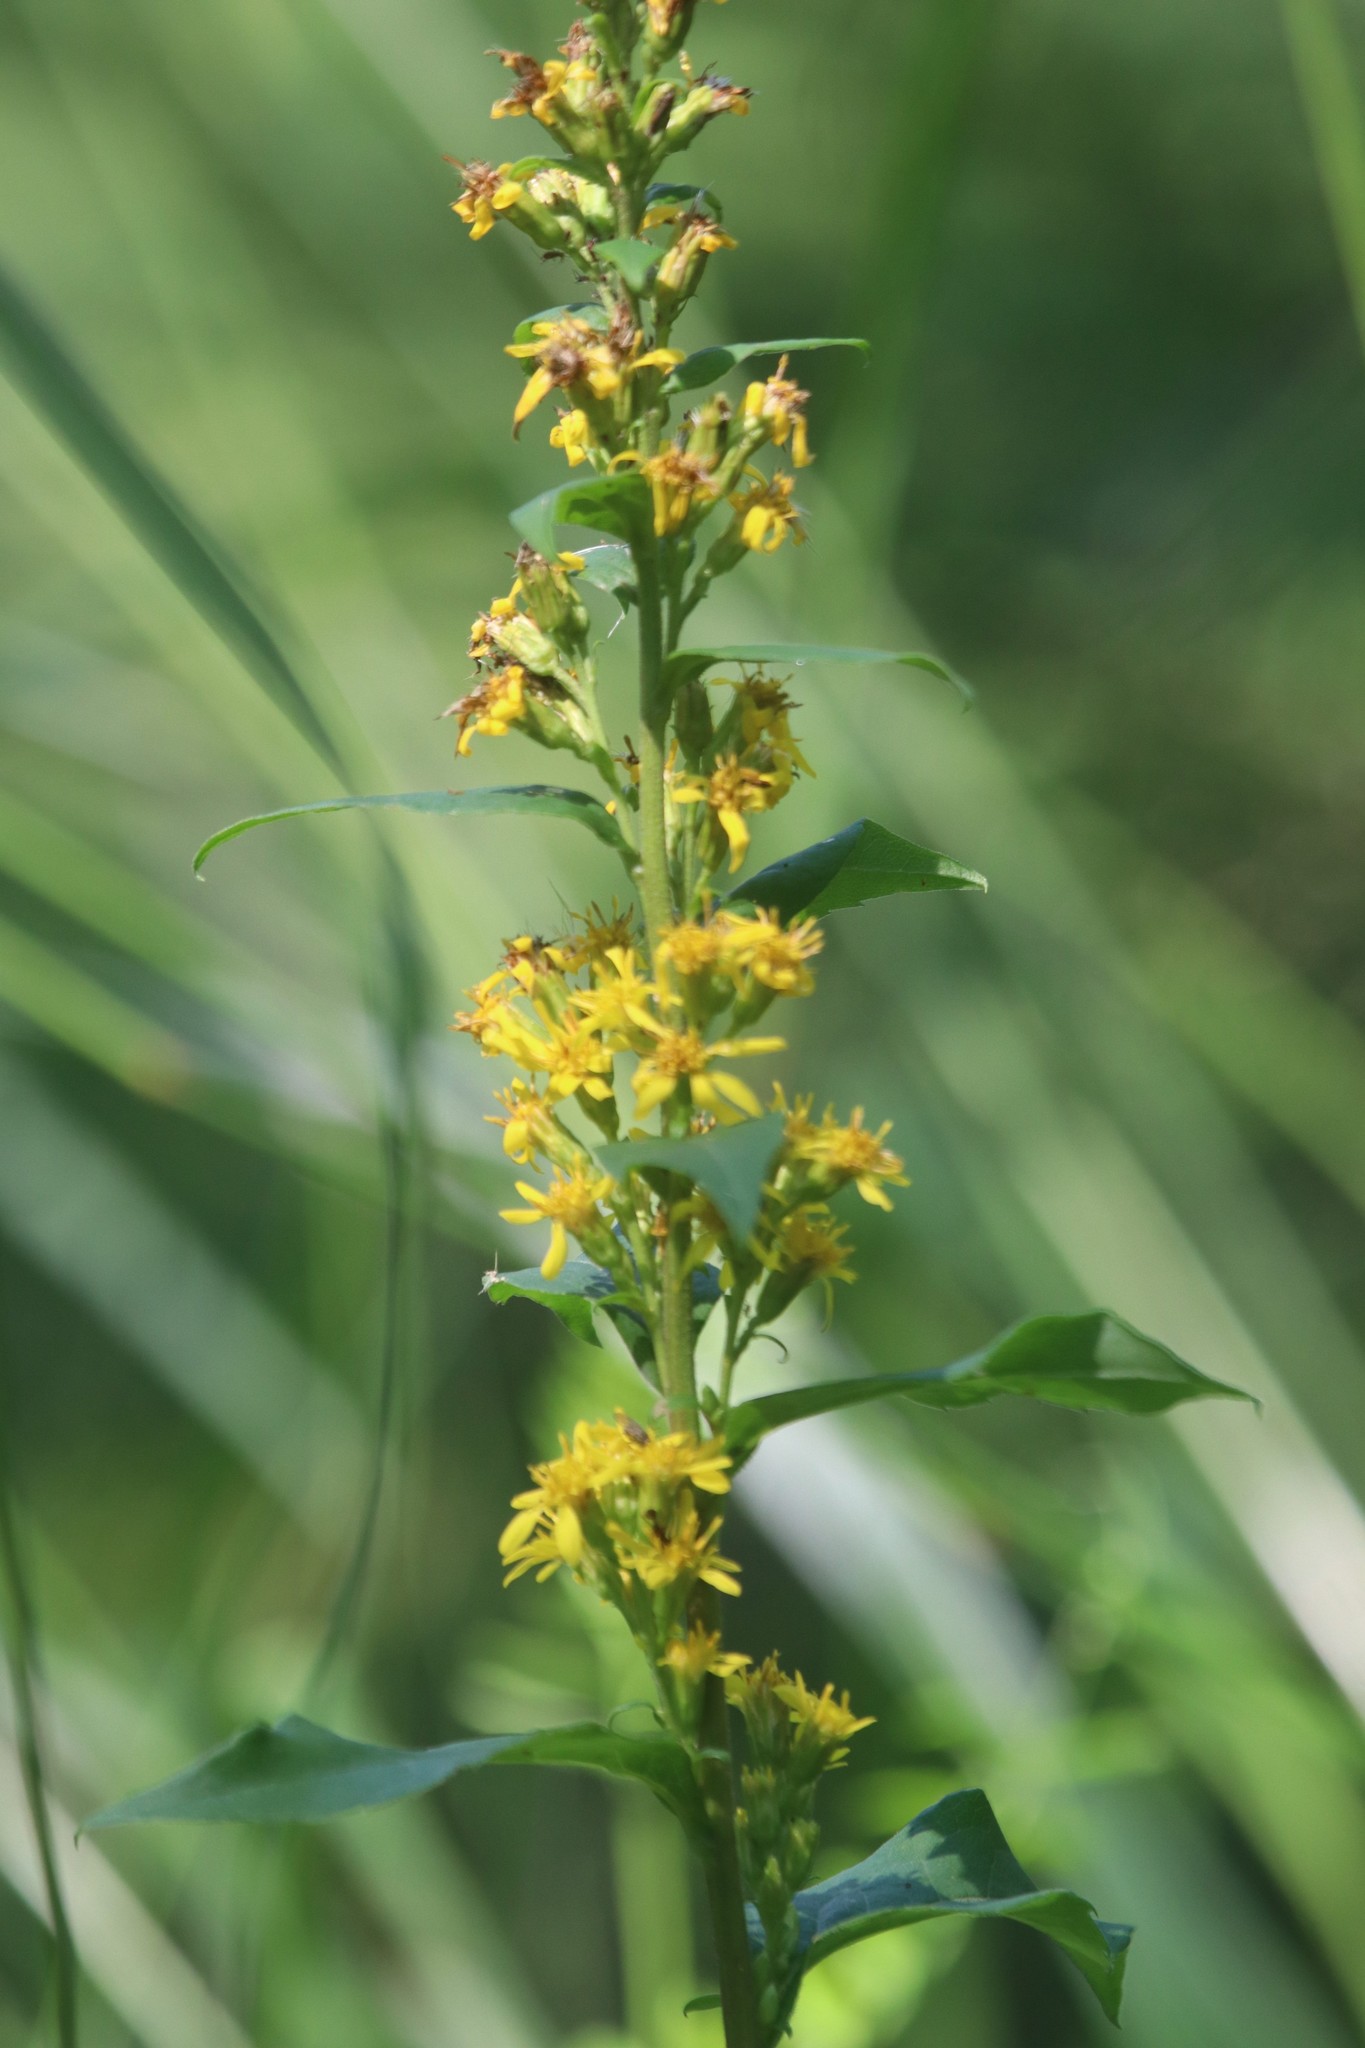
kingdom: Plantae
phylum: Tracheophyta
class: Magnoliopsida
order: Asterales
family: Asteraceae
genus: Solidago
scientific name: Solidago virgaurea
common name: Goldenrod
